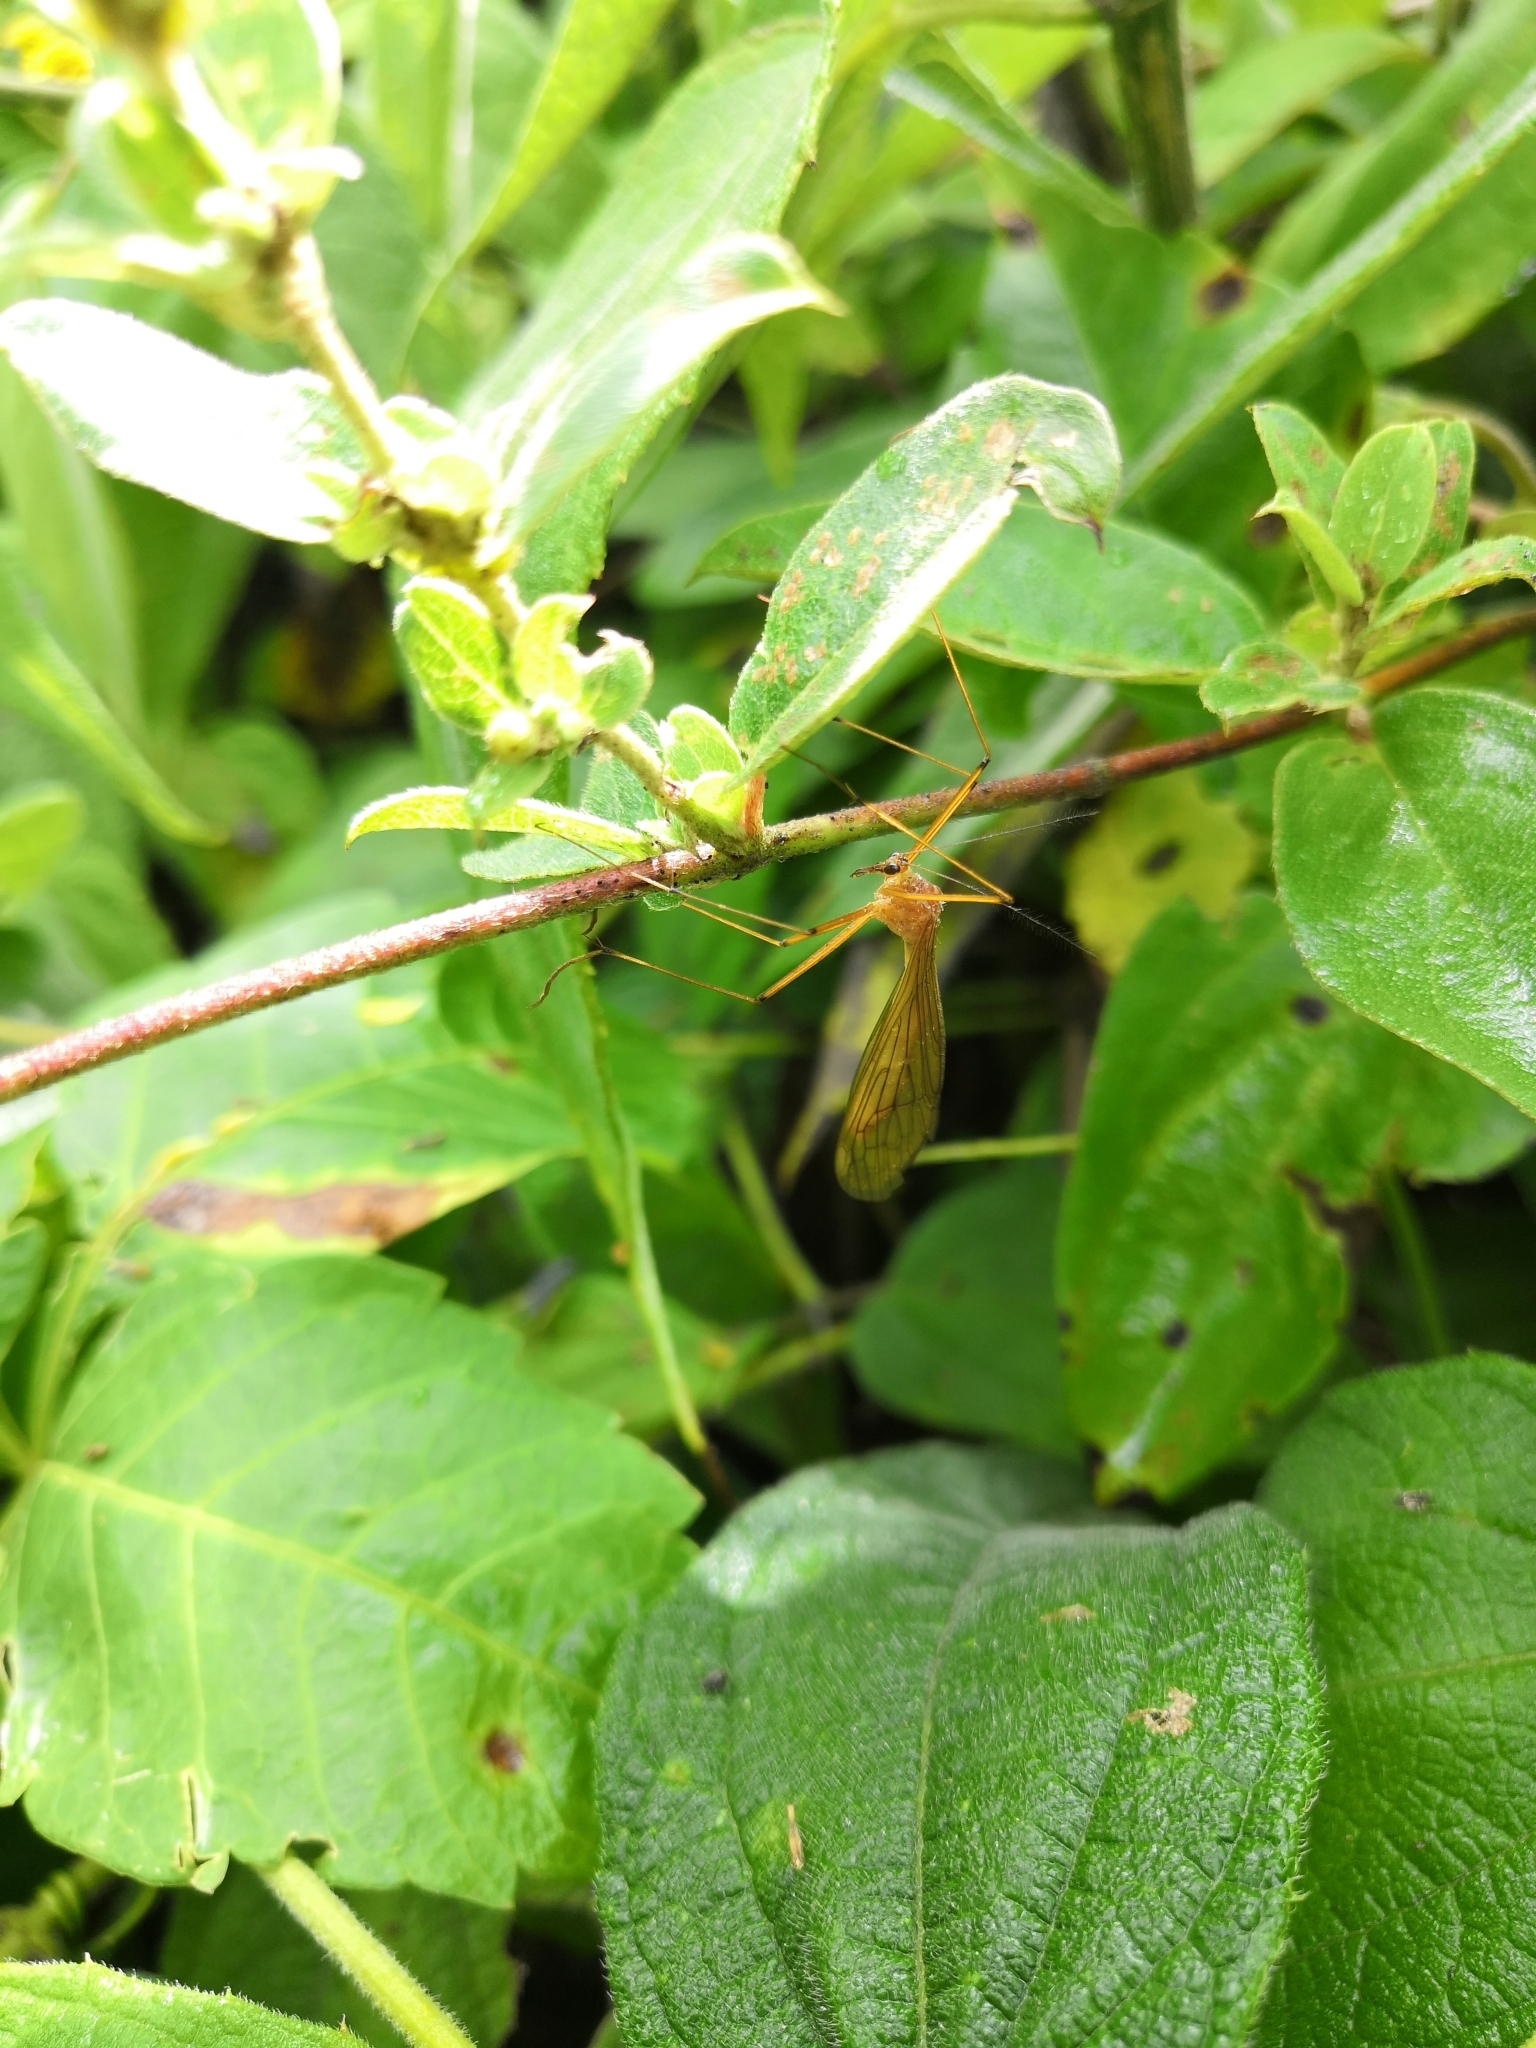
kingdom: Animalia
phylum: Arthropoda
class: Insecta
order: Mecoptera
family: Bittacidae
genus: Bittacus
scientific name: Bittacus mexicanus
